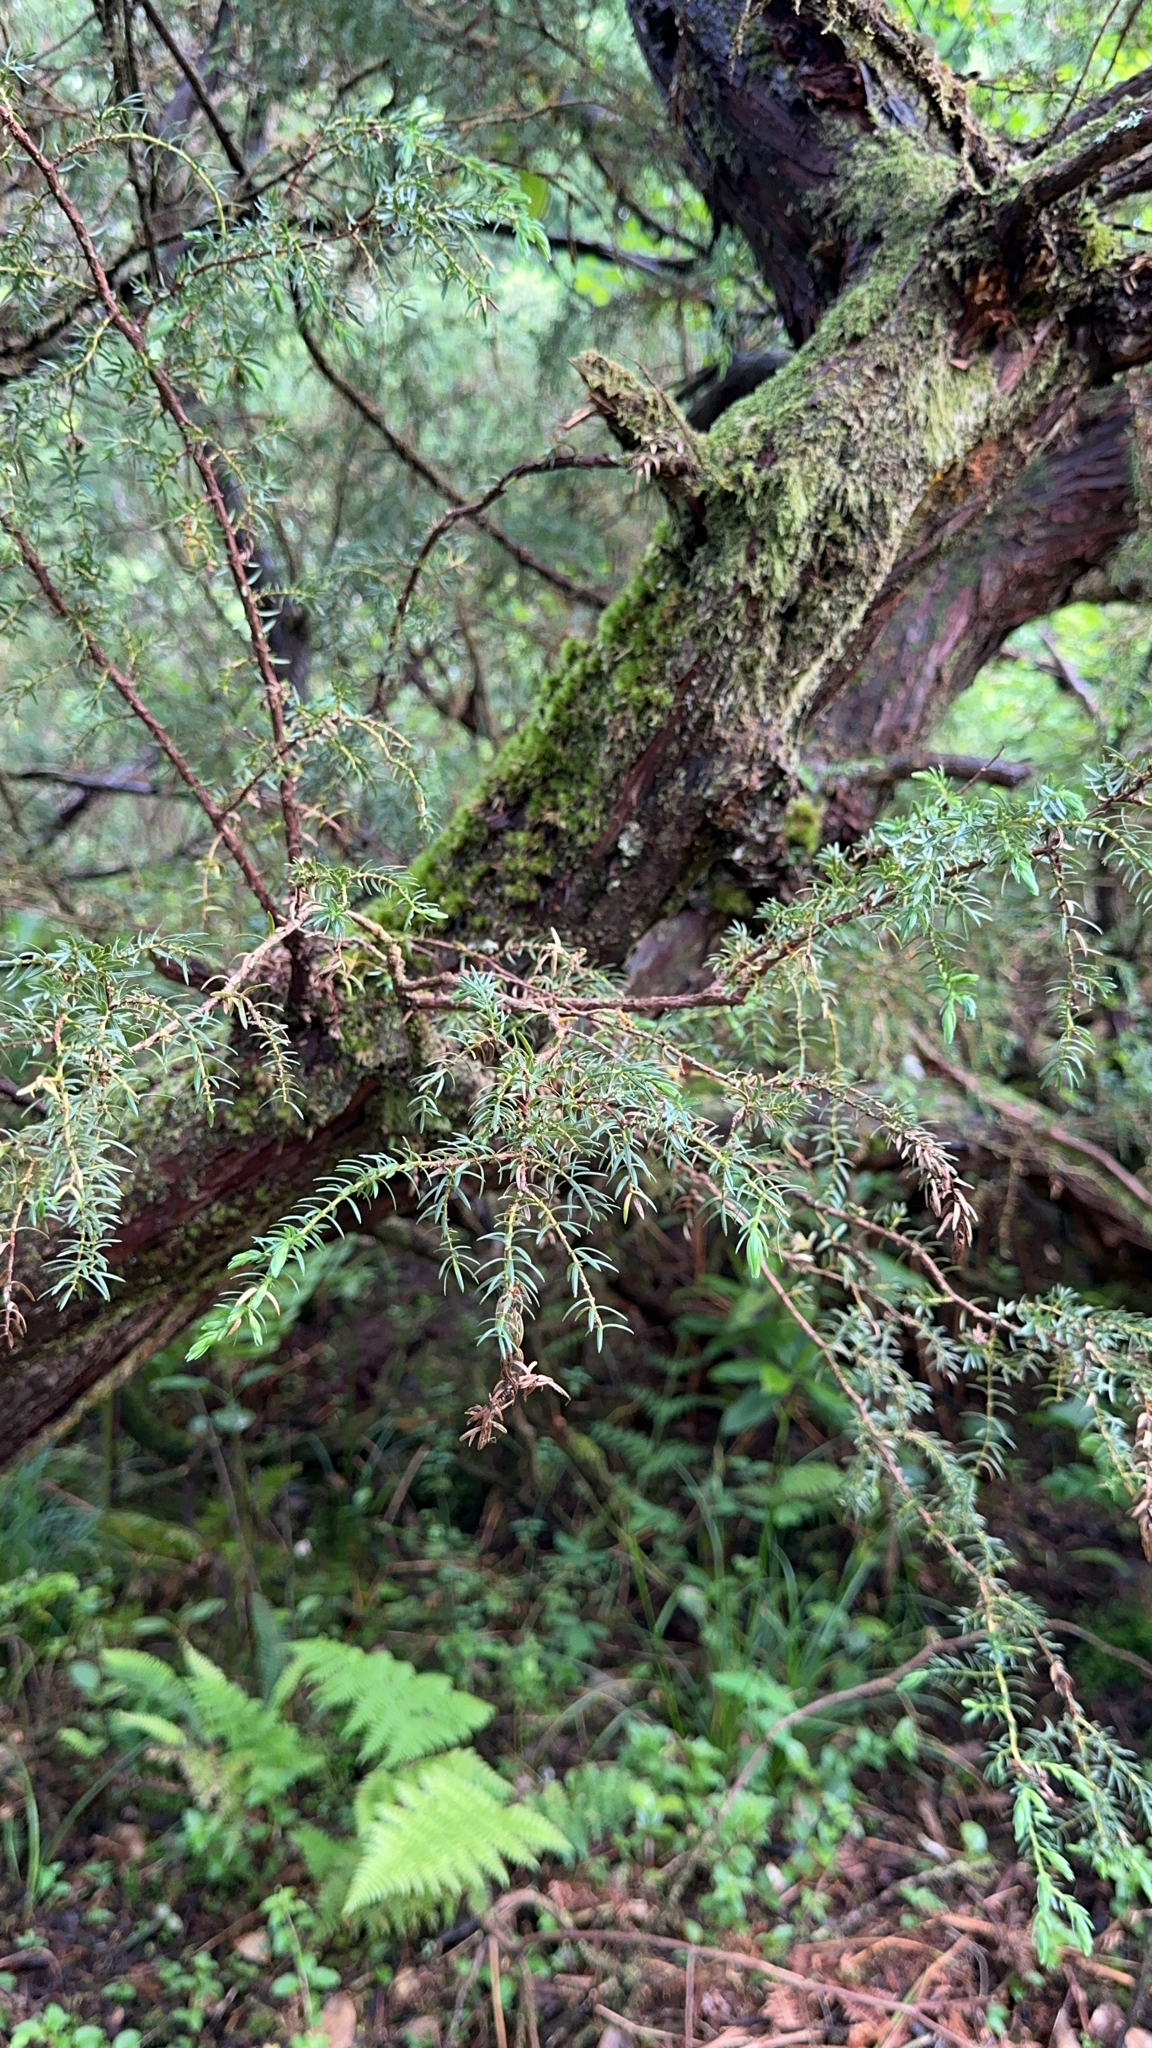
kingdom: Plantae
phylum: Tracheophyta
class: Pinopsida
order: Pinales
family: Cupressaceae
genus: Juniperus
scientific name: Juniperus brevifolia
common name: Azores juniper
